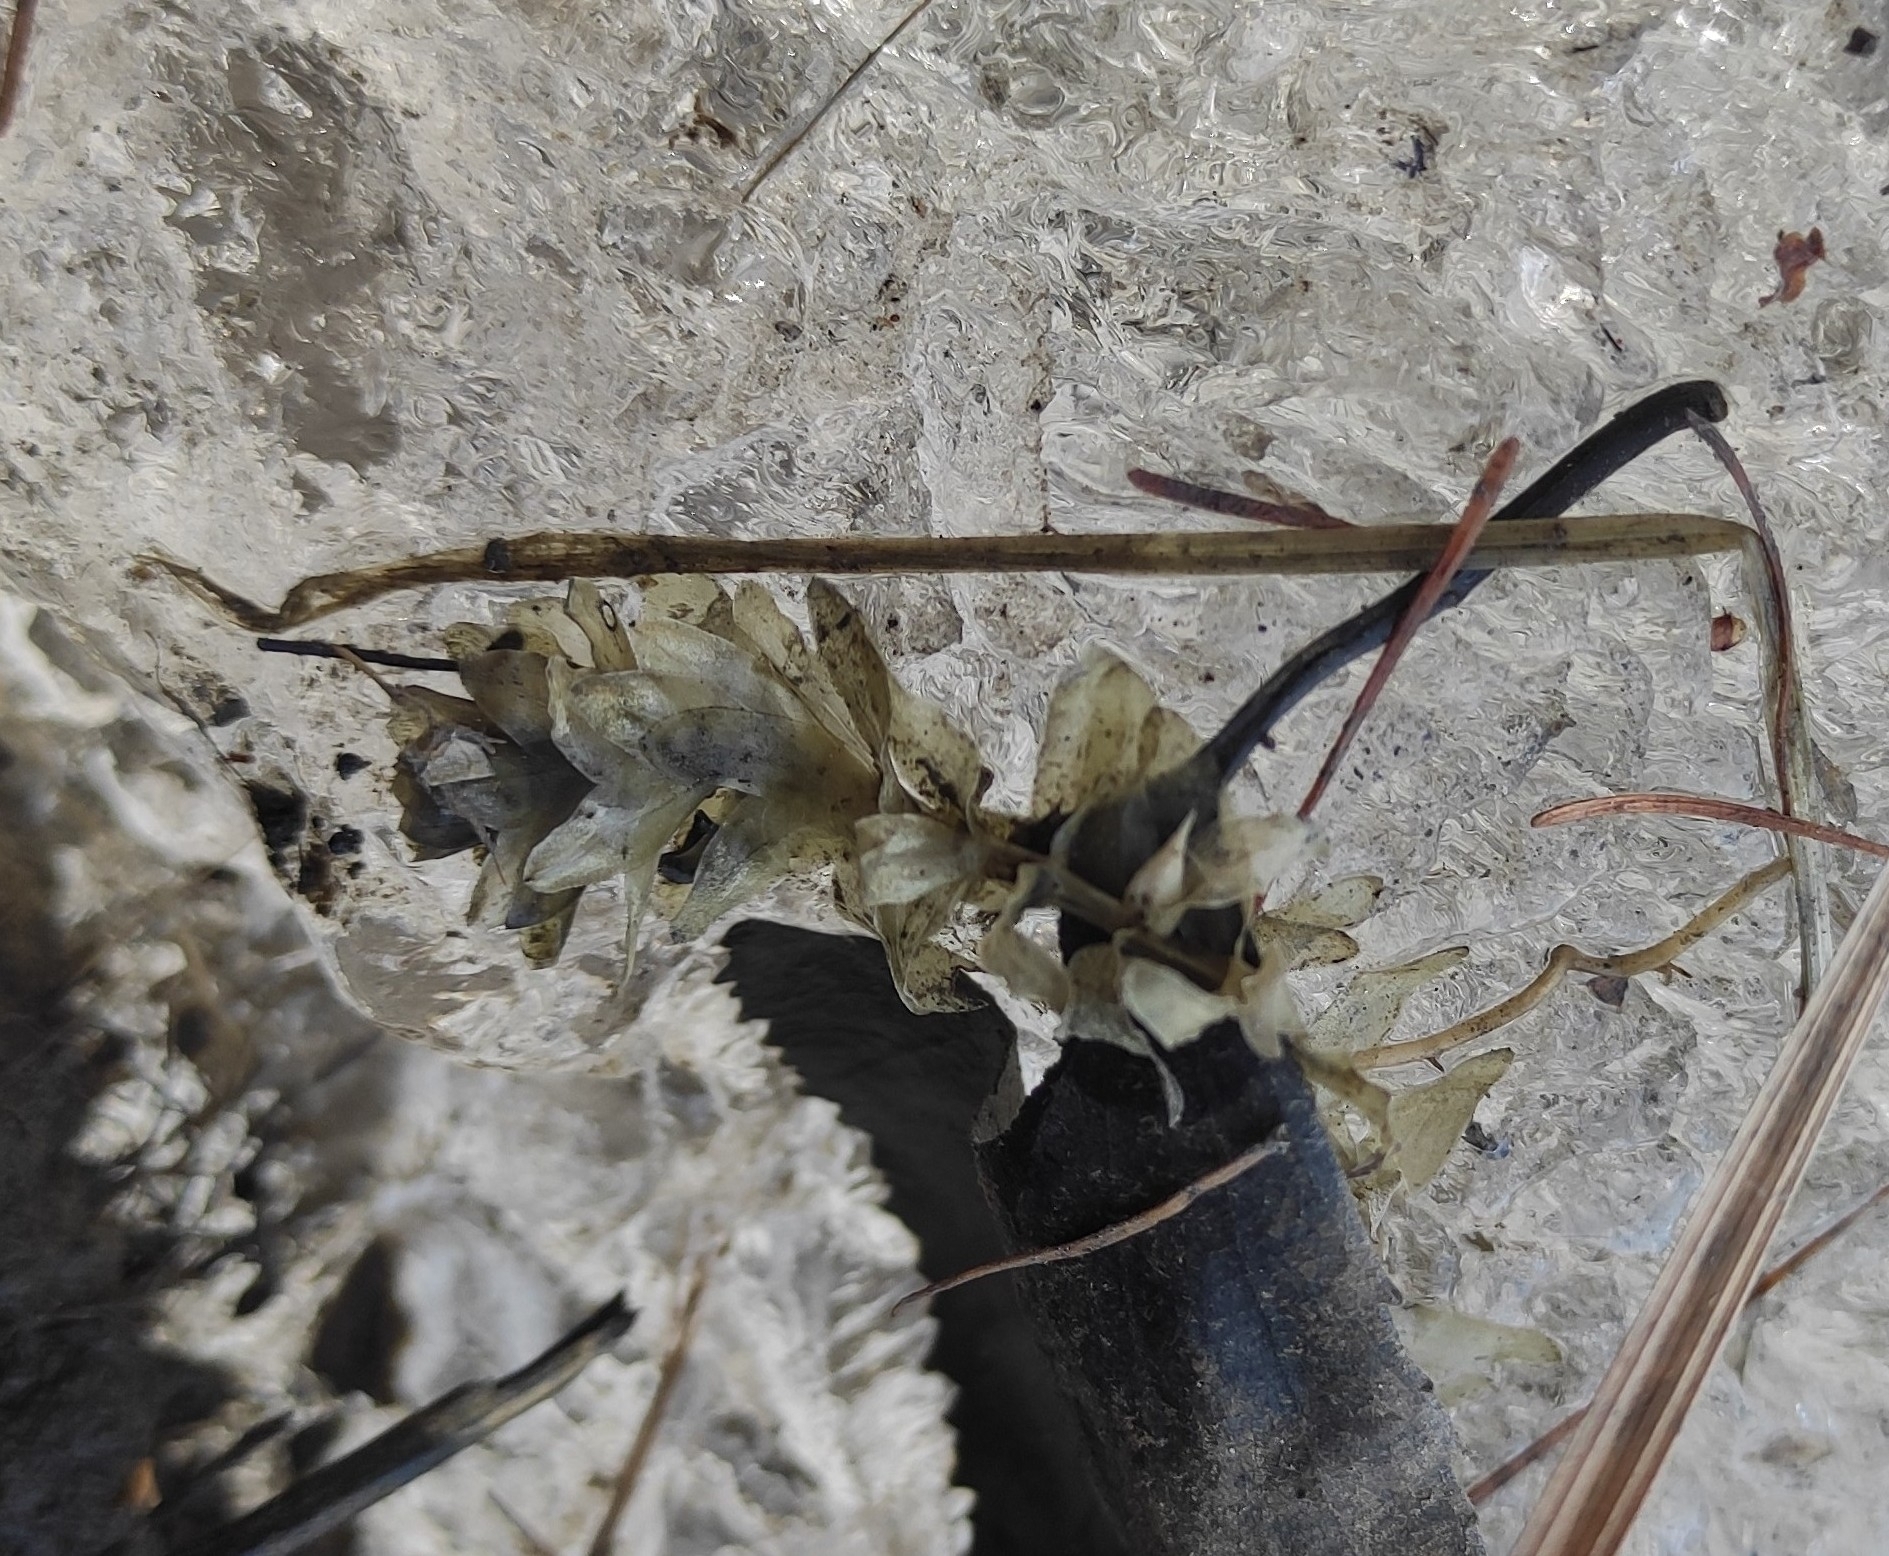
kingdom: Plantae
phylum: Tracheophyta
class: Liliopsida
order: Alismatales
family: Hydrocharitaceae
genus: Elodea
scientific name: Elodea canadensis
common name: Canadian waterweed
